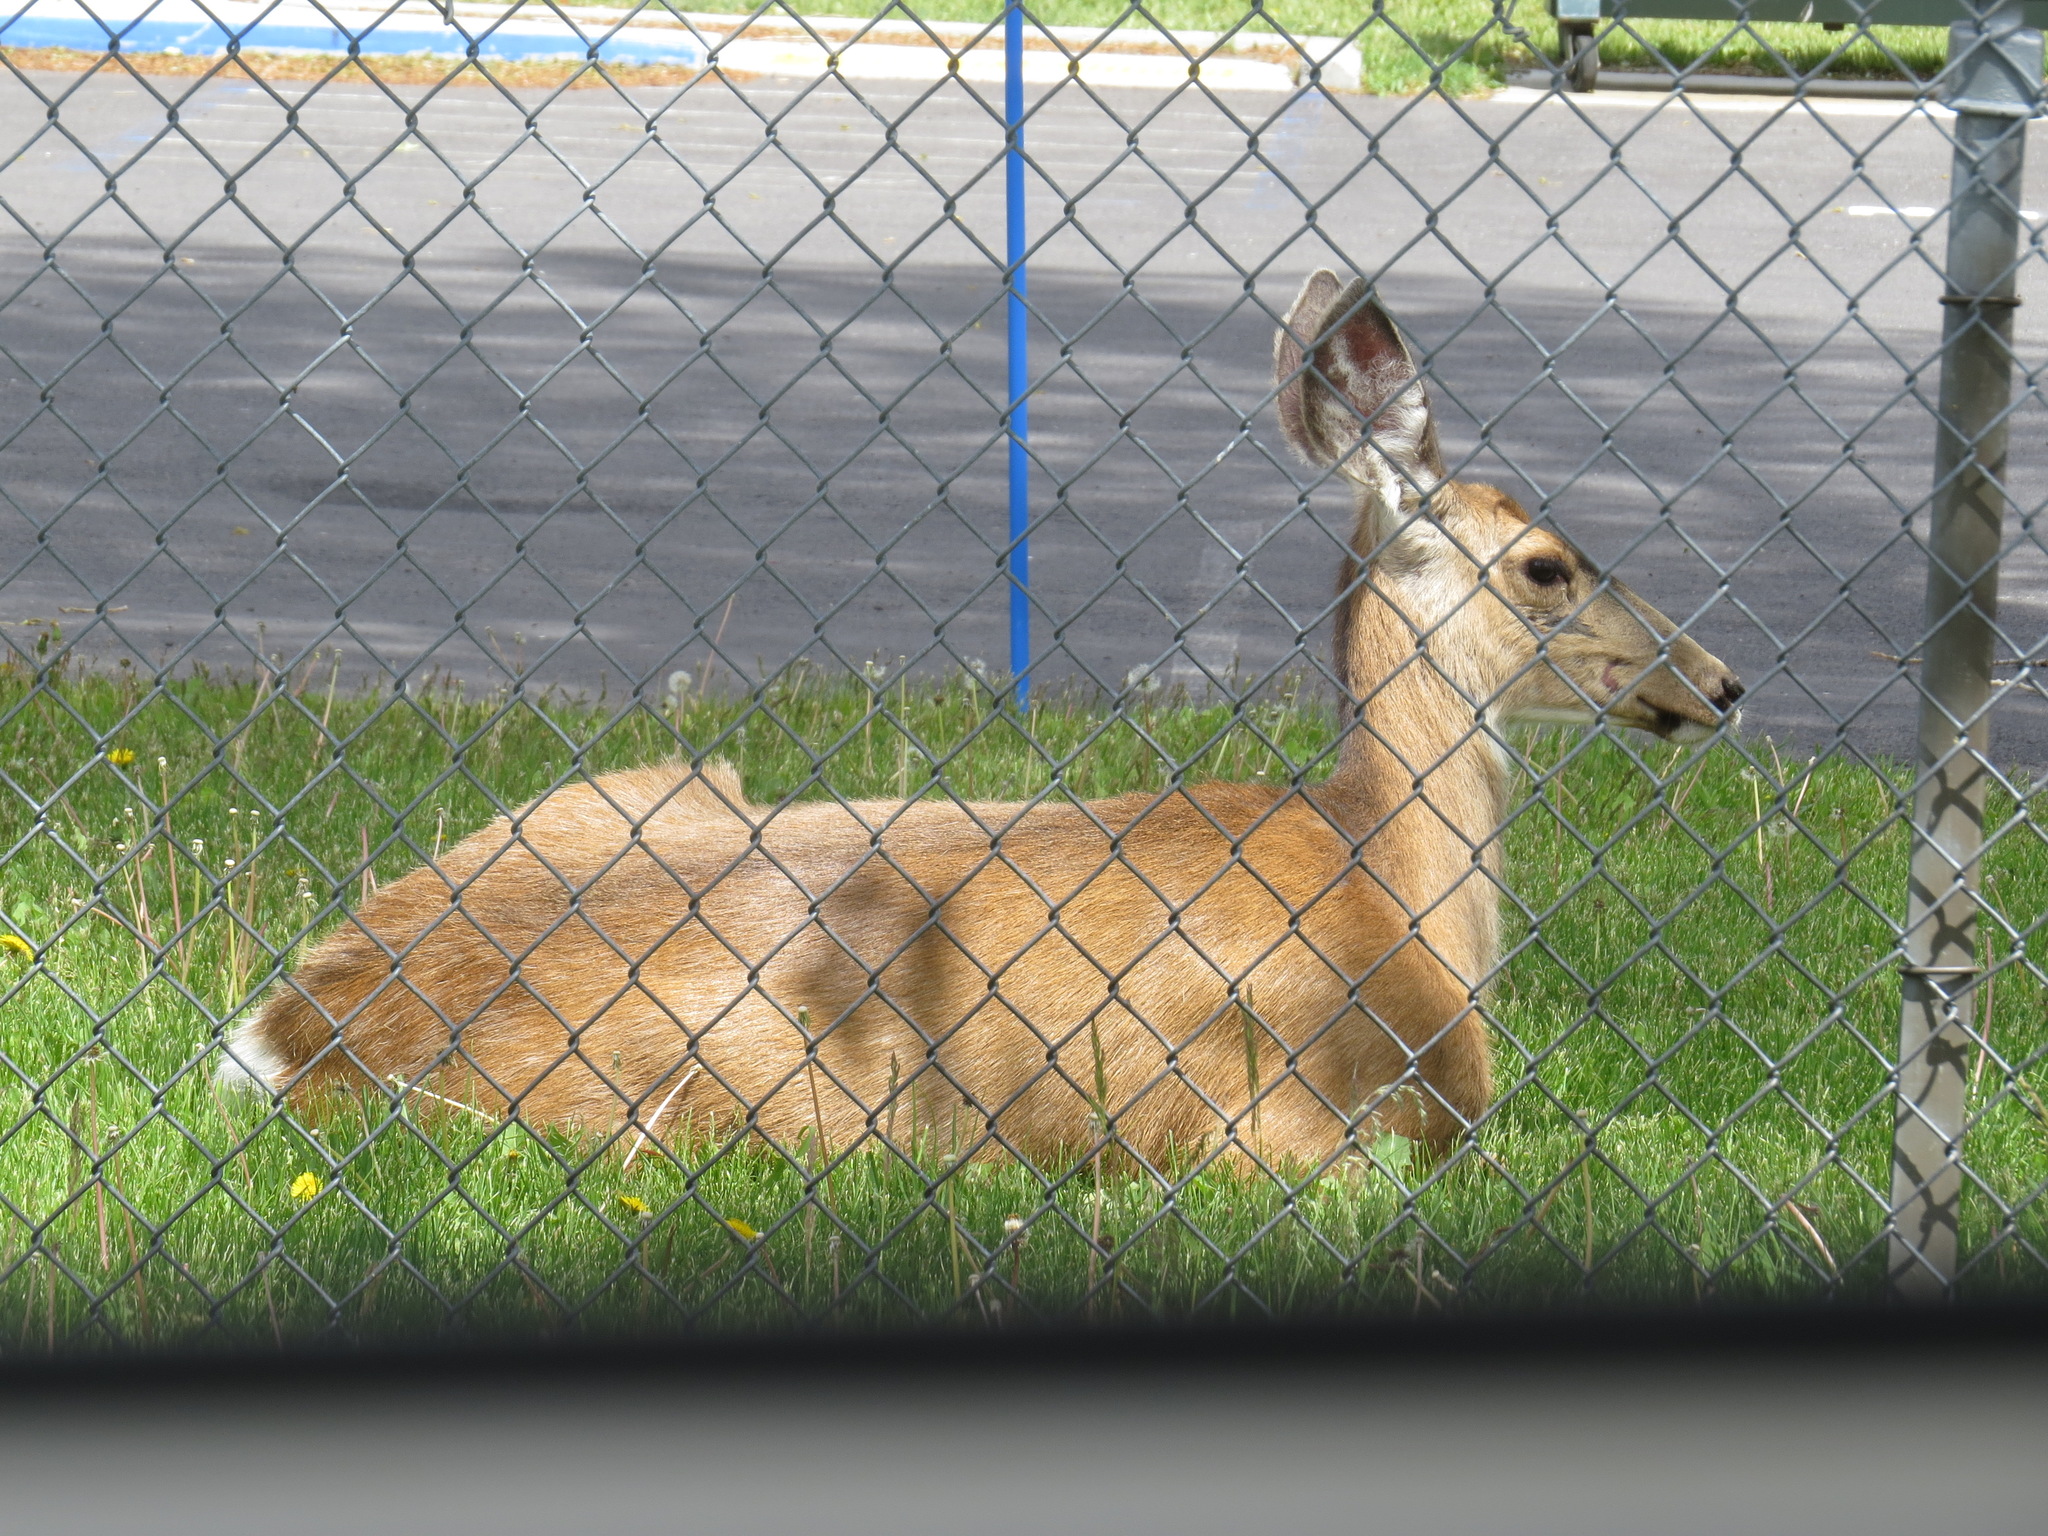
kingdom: Animalia
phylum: Chordata
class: Mammalia
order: Artiodactyla
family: Cervidae
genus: Odocoileus
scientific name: Odocoileus hemionus
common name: Mule deer
